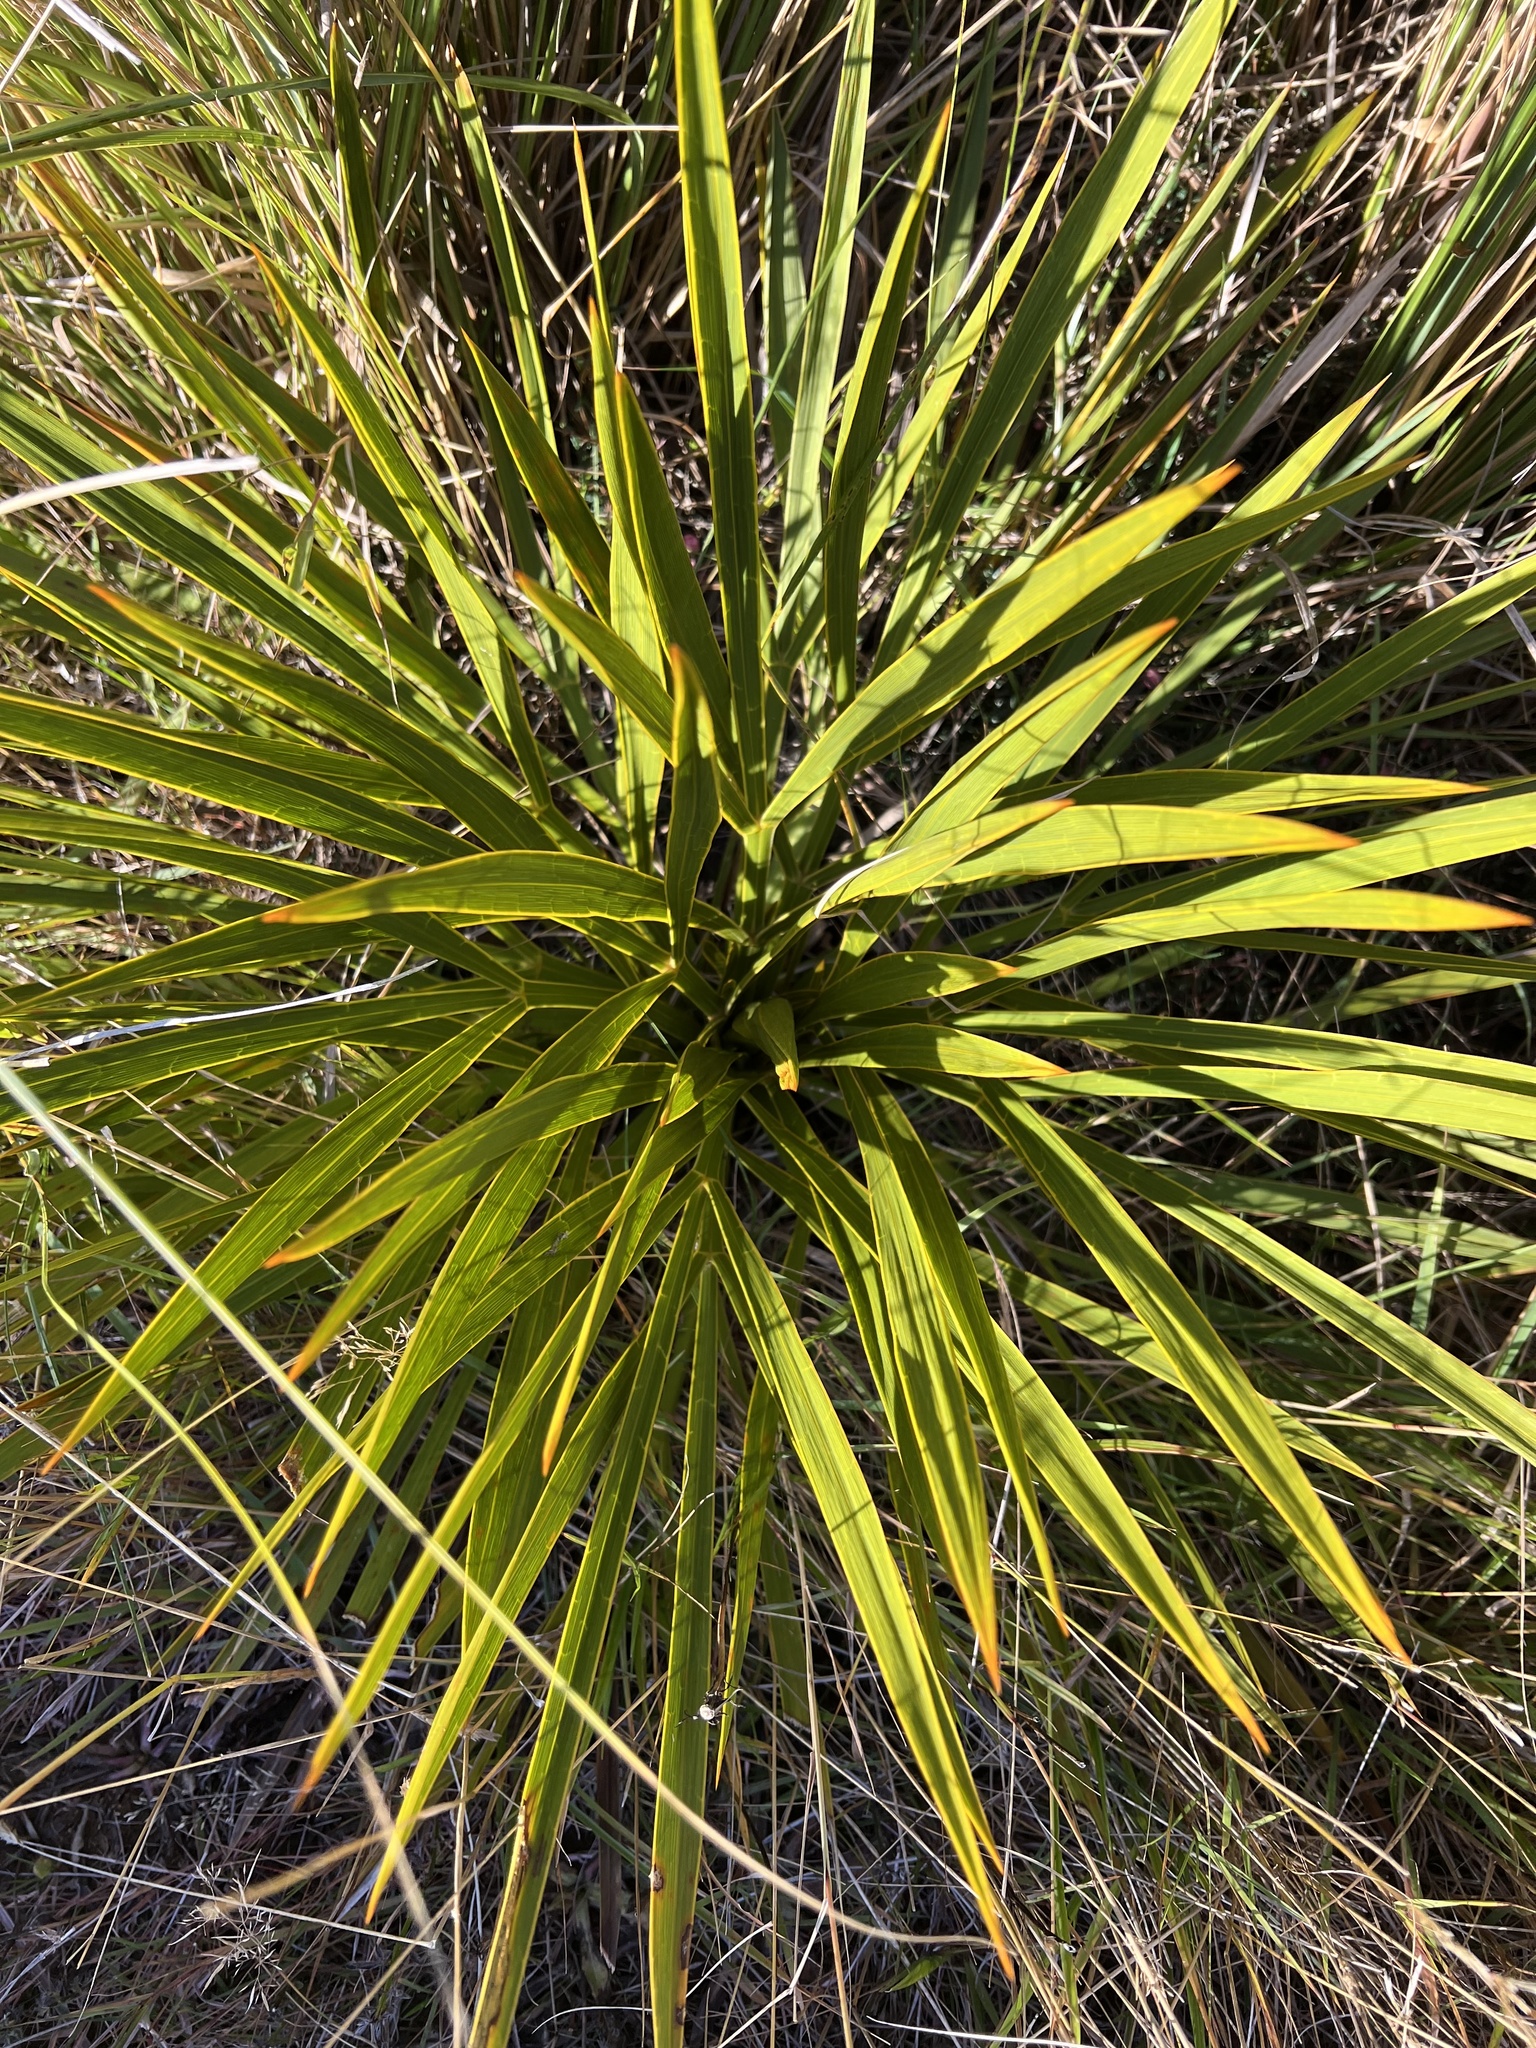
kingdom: Plantae
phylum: Tracheophyta
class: Magnoliopsida
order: Apiales
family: Apiaceae
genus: Aciphylla
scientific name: Aciphylla aurea
